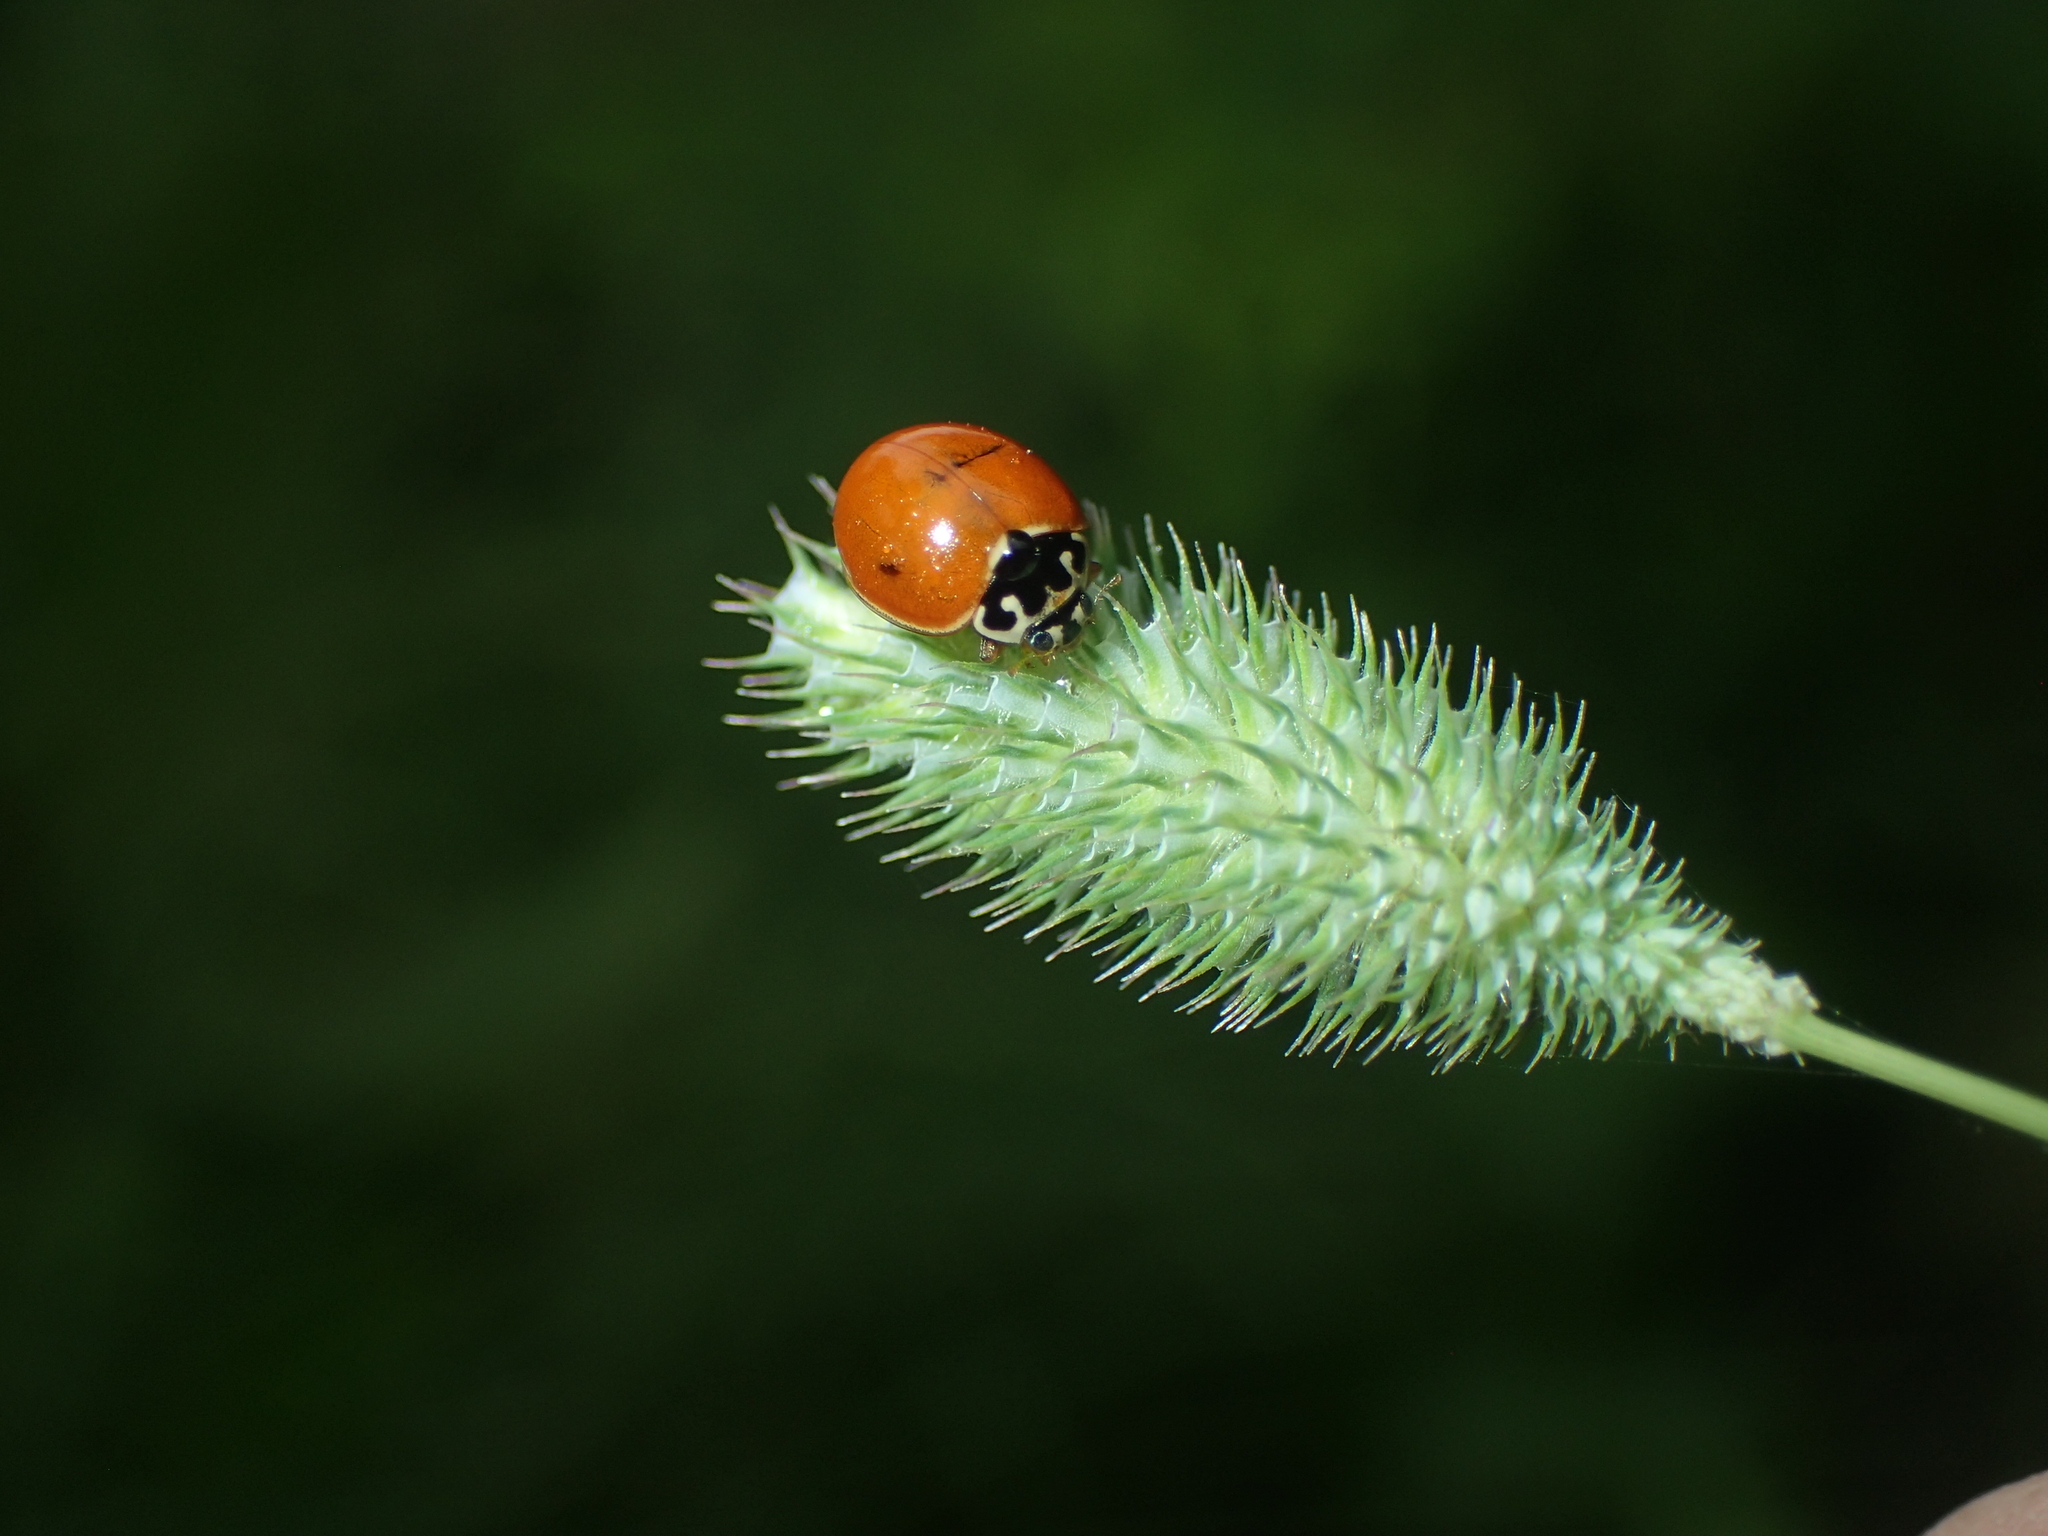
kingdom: Animalia
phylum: Arthropoda
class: Insecta
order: Coleoptera
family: Coccinellidae
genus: Cycloneda
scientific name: Cycloneda munda
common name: Polished lady beetle
